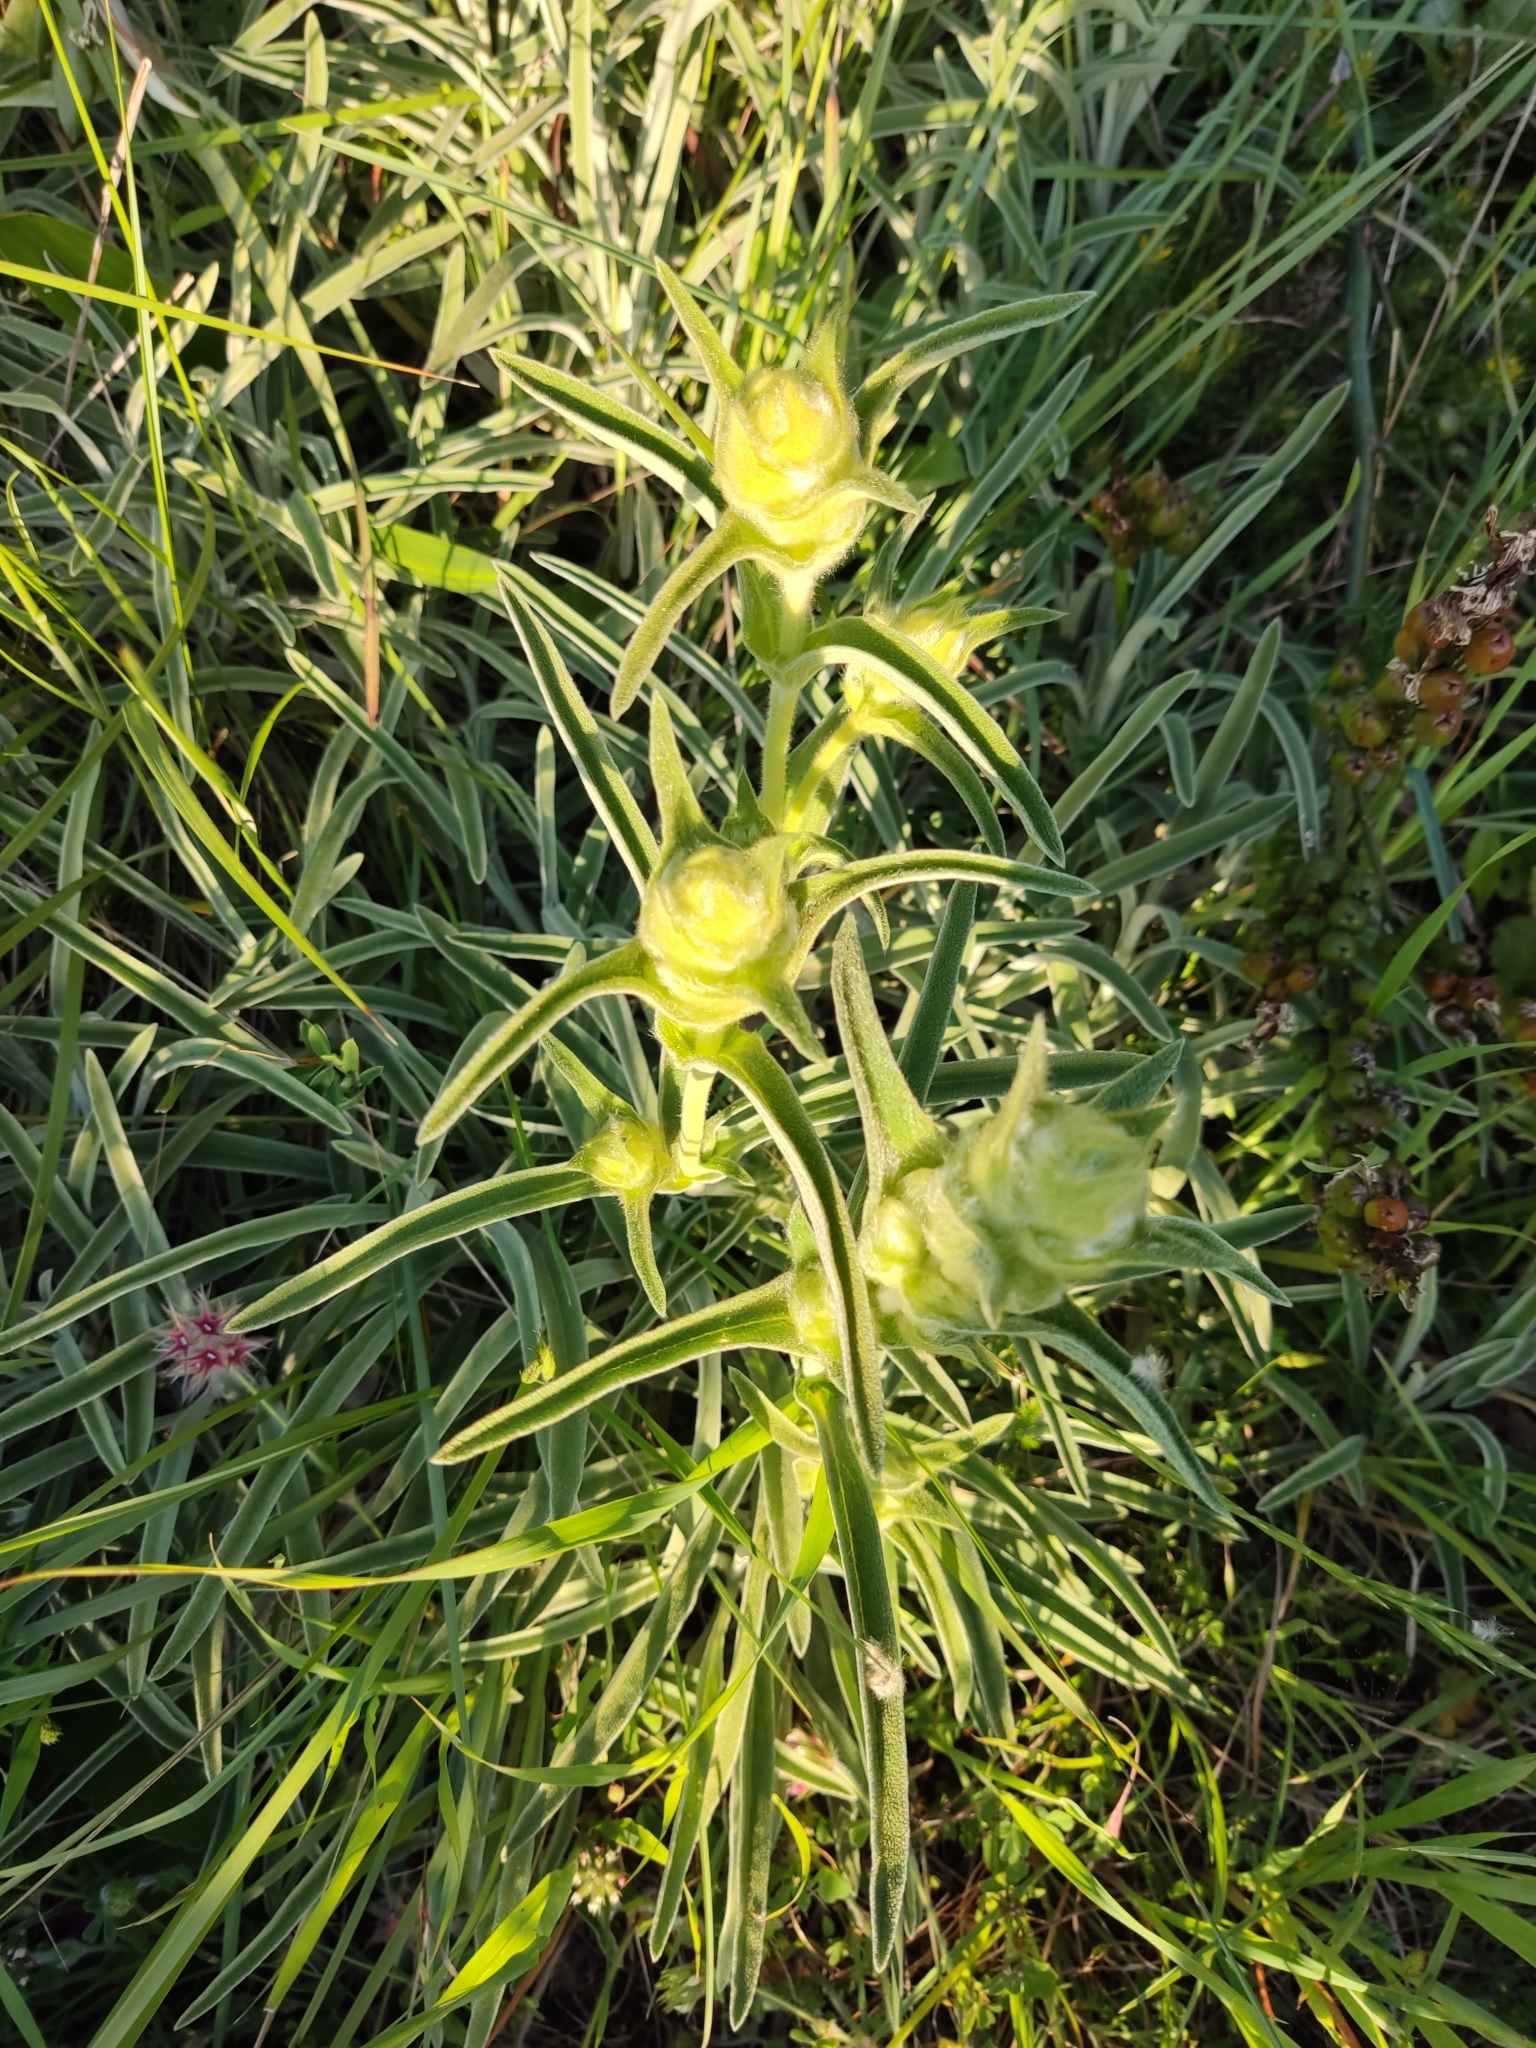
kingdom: Plantae
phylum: Tracheophyta
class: Magnoliopsida
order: Lamiales
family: Lamiaceae
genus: Phlomis
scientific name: Phlomis lychnitis
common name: Lampwickplant
